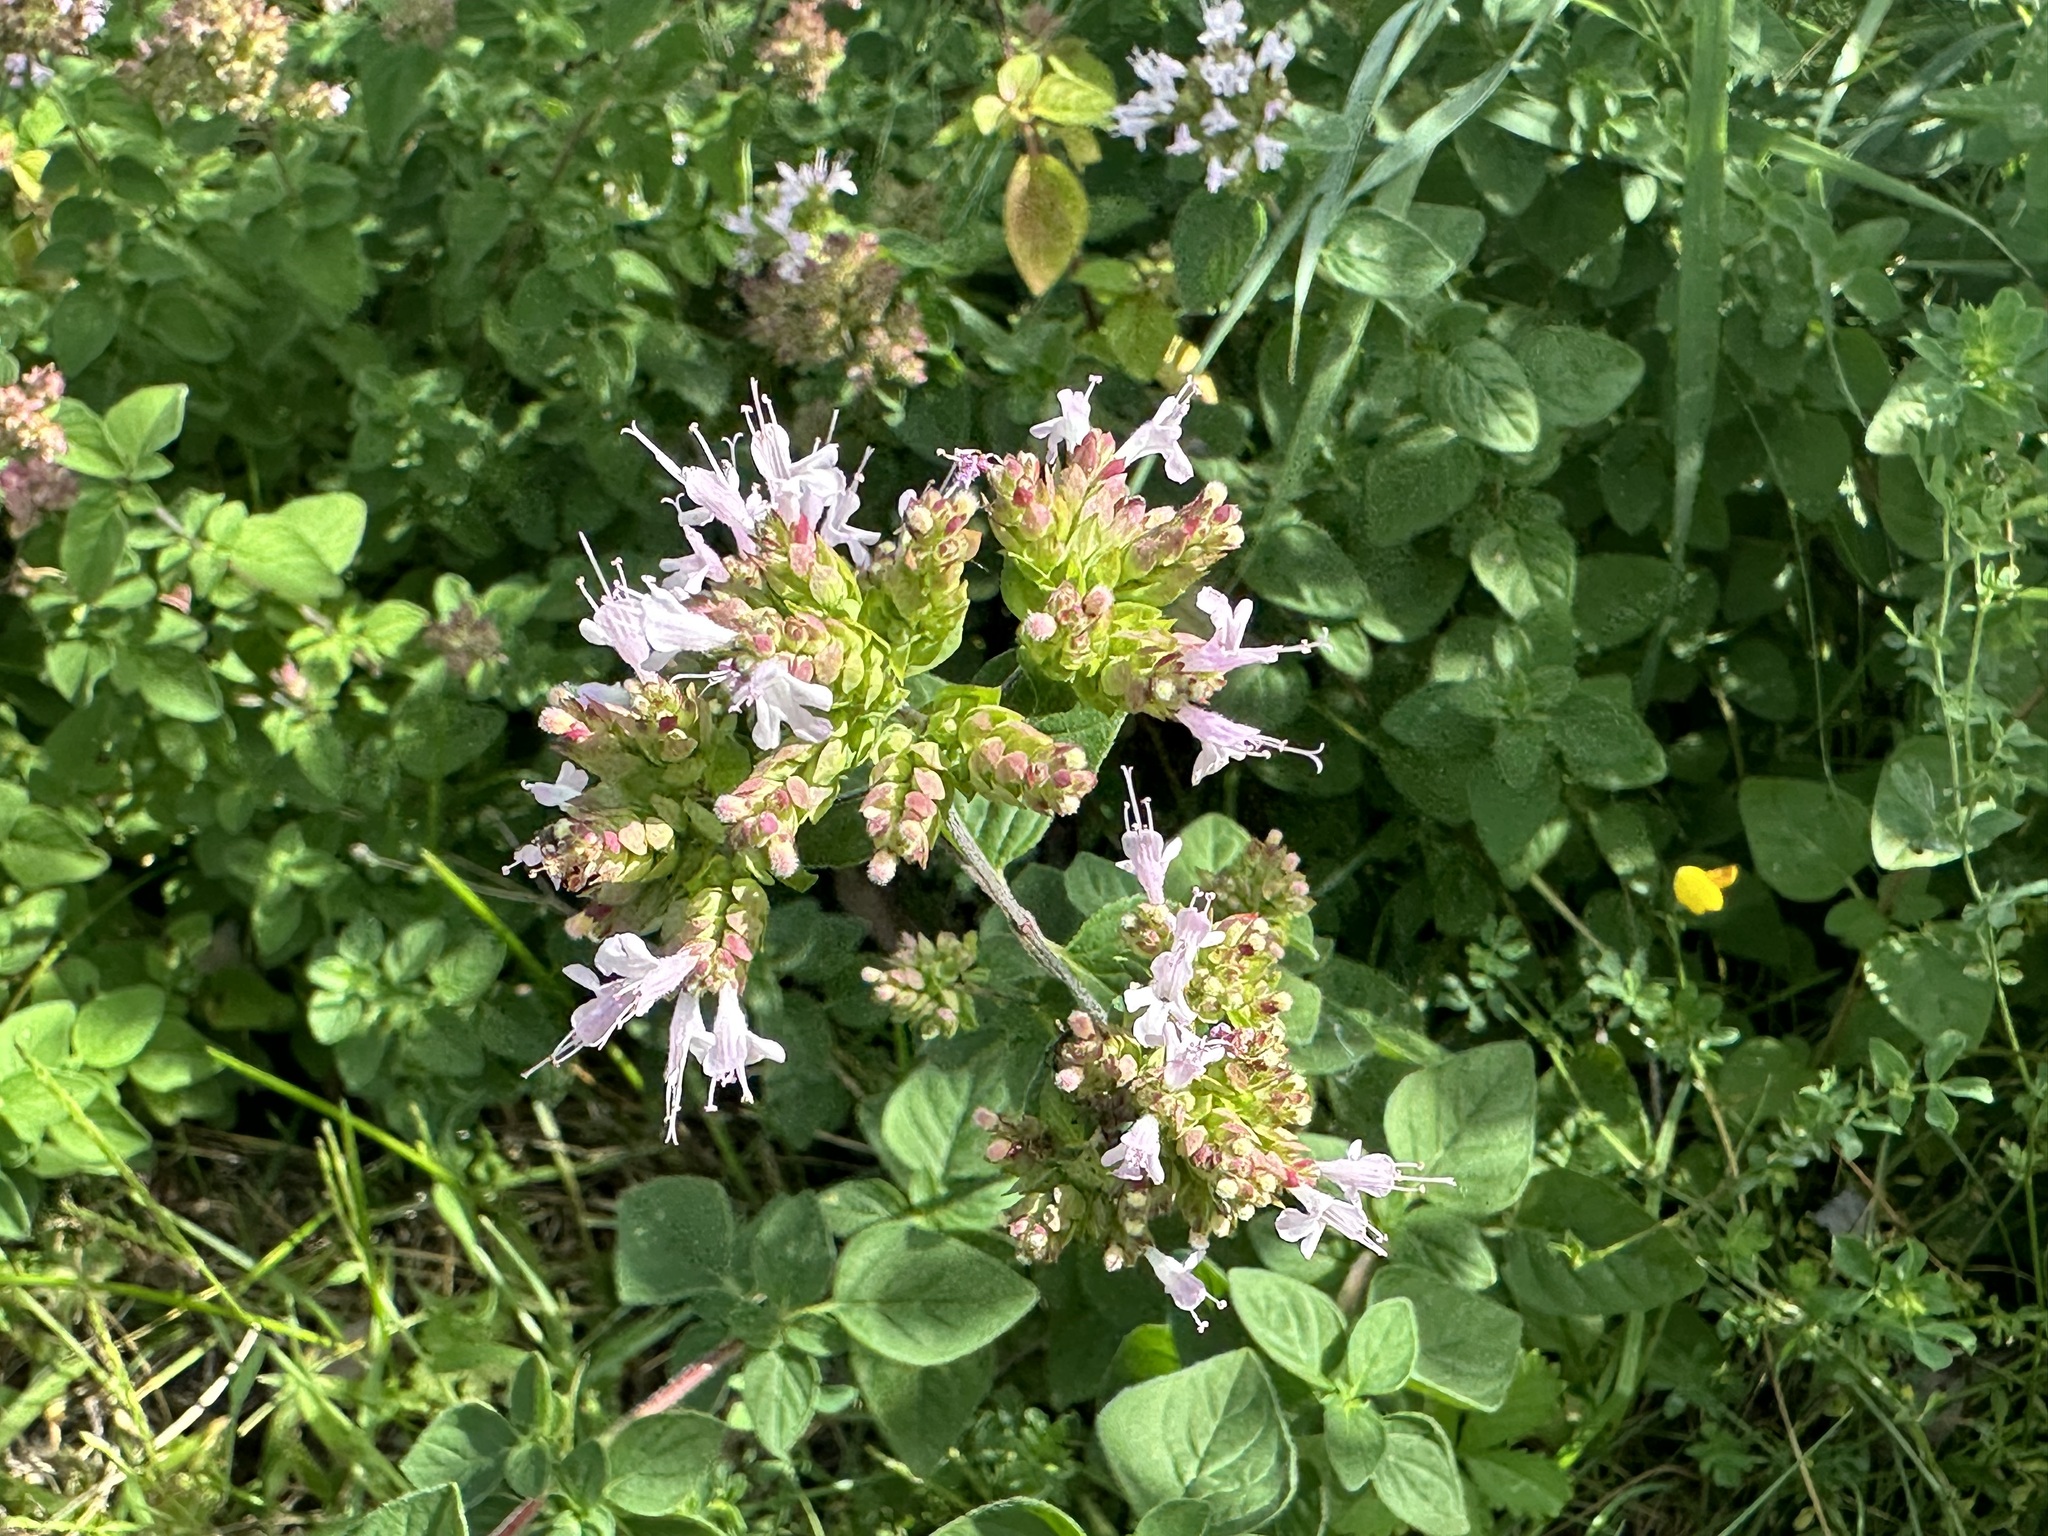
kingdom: Plantae
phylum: Tracheophyta
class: Magnoliopsida
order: Lamiales
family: Lamiaceae
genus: Origanum
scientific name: Origanum vulgare
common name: Wild marjoram
